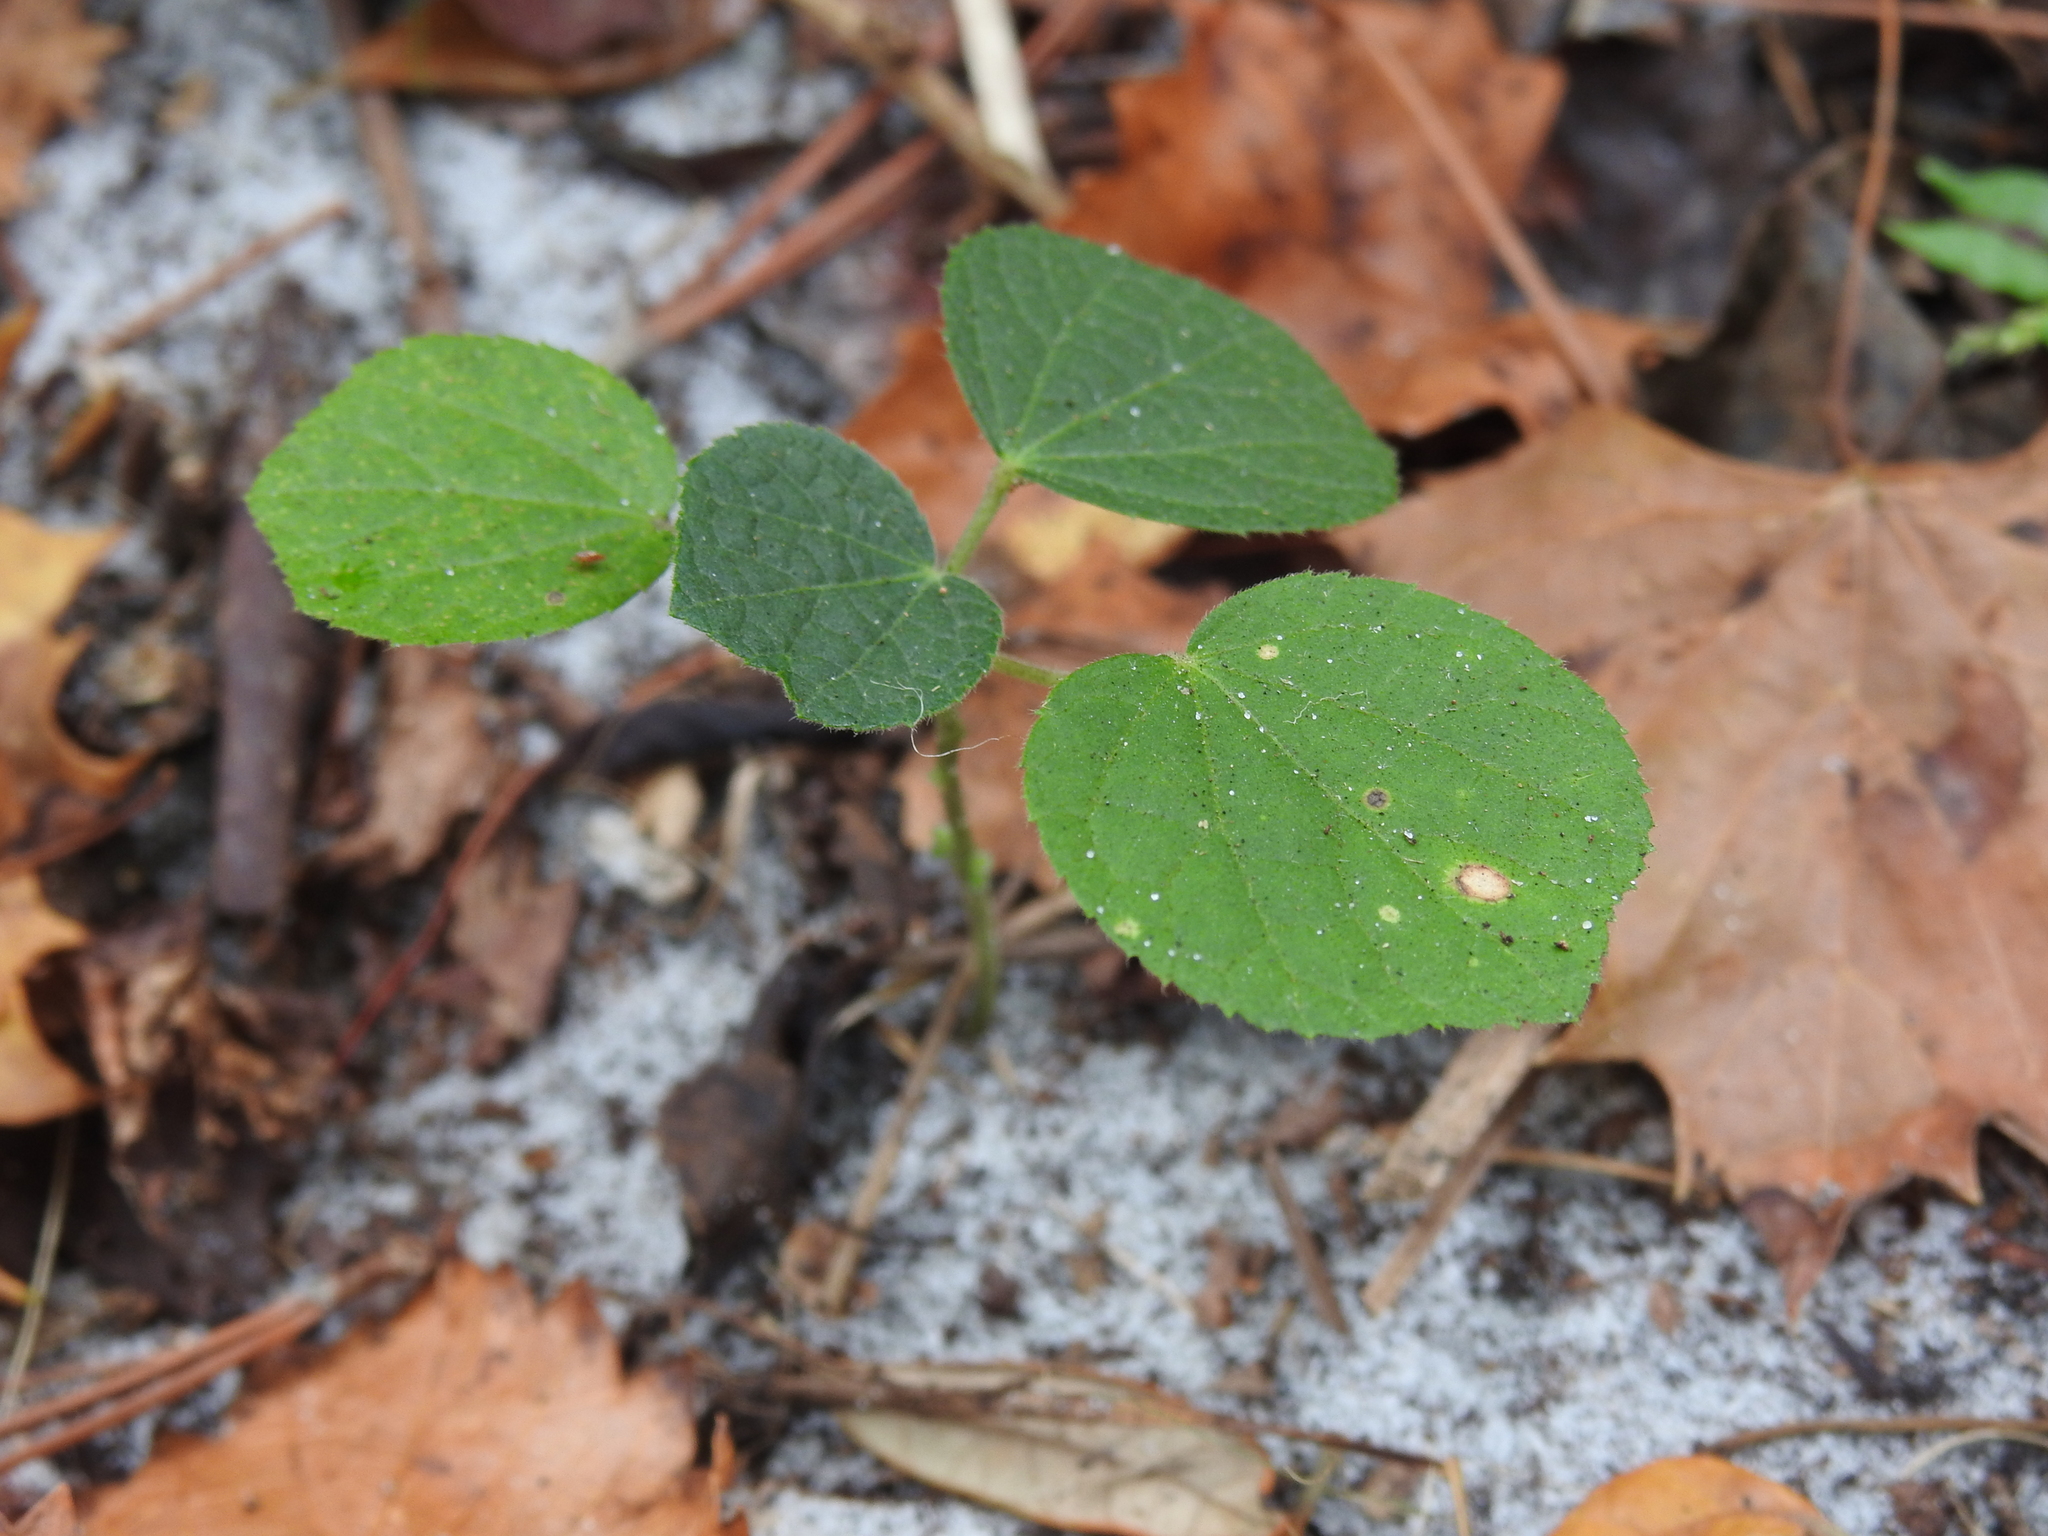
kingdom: Plantae
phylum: Tracheophyta
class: Magnoliopsida
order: Malvales
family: Malvaceae
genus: Urena
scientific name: Urena lobata
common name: Caesarweed
